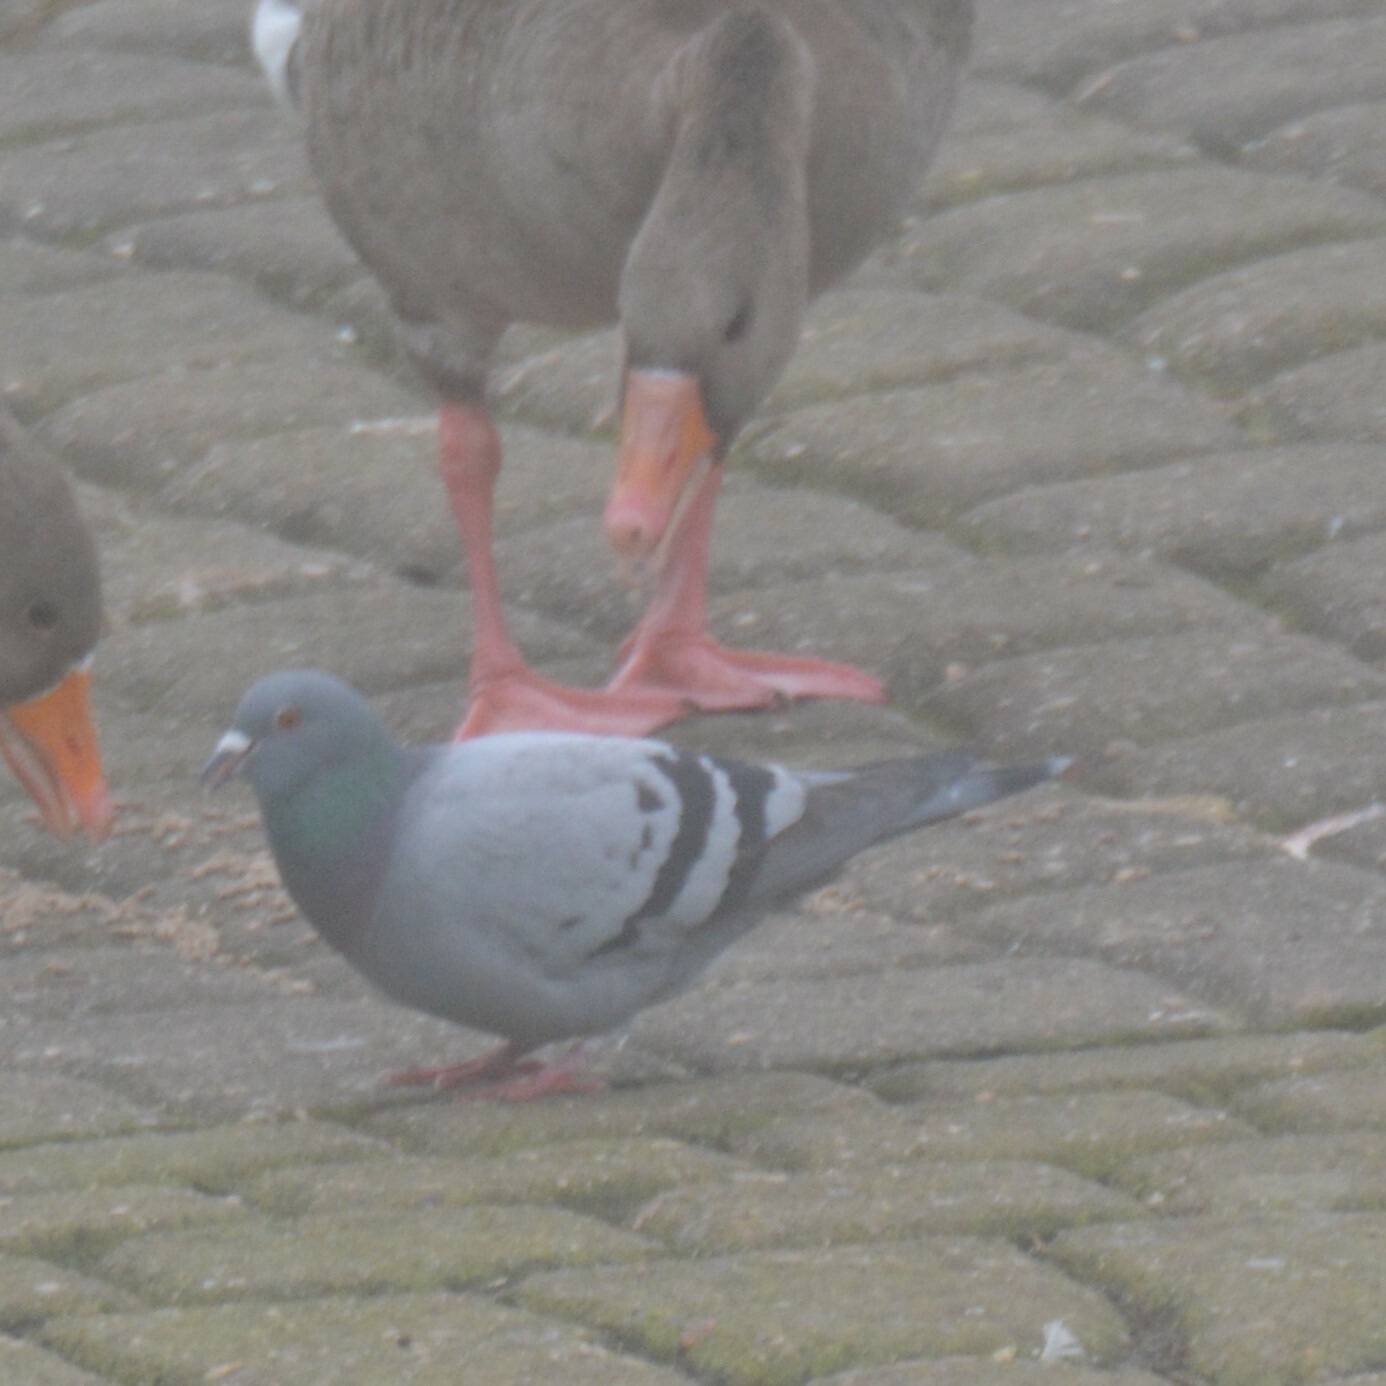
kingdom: Animalia
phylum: Chordata
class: Aves
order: Columbiformes
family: Columbidae
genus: Columba
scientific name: Columba livia
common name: Rock pigeon
